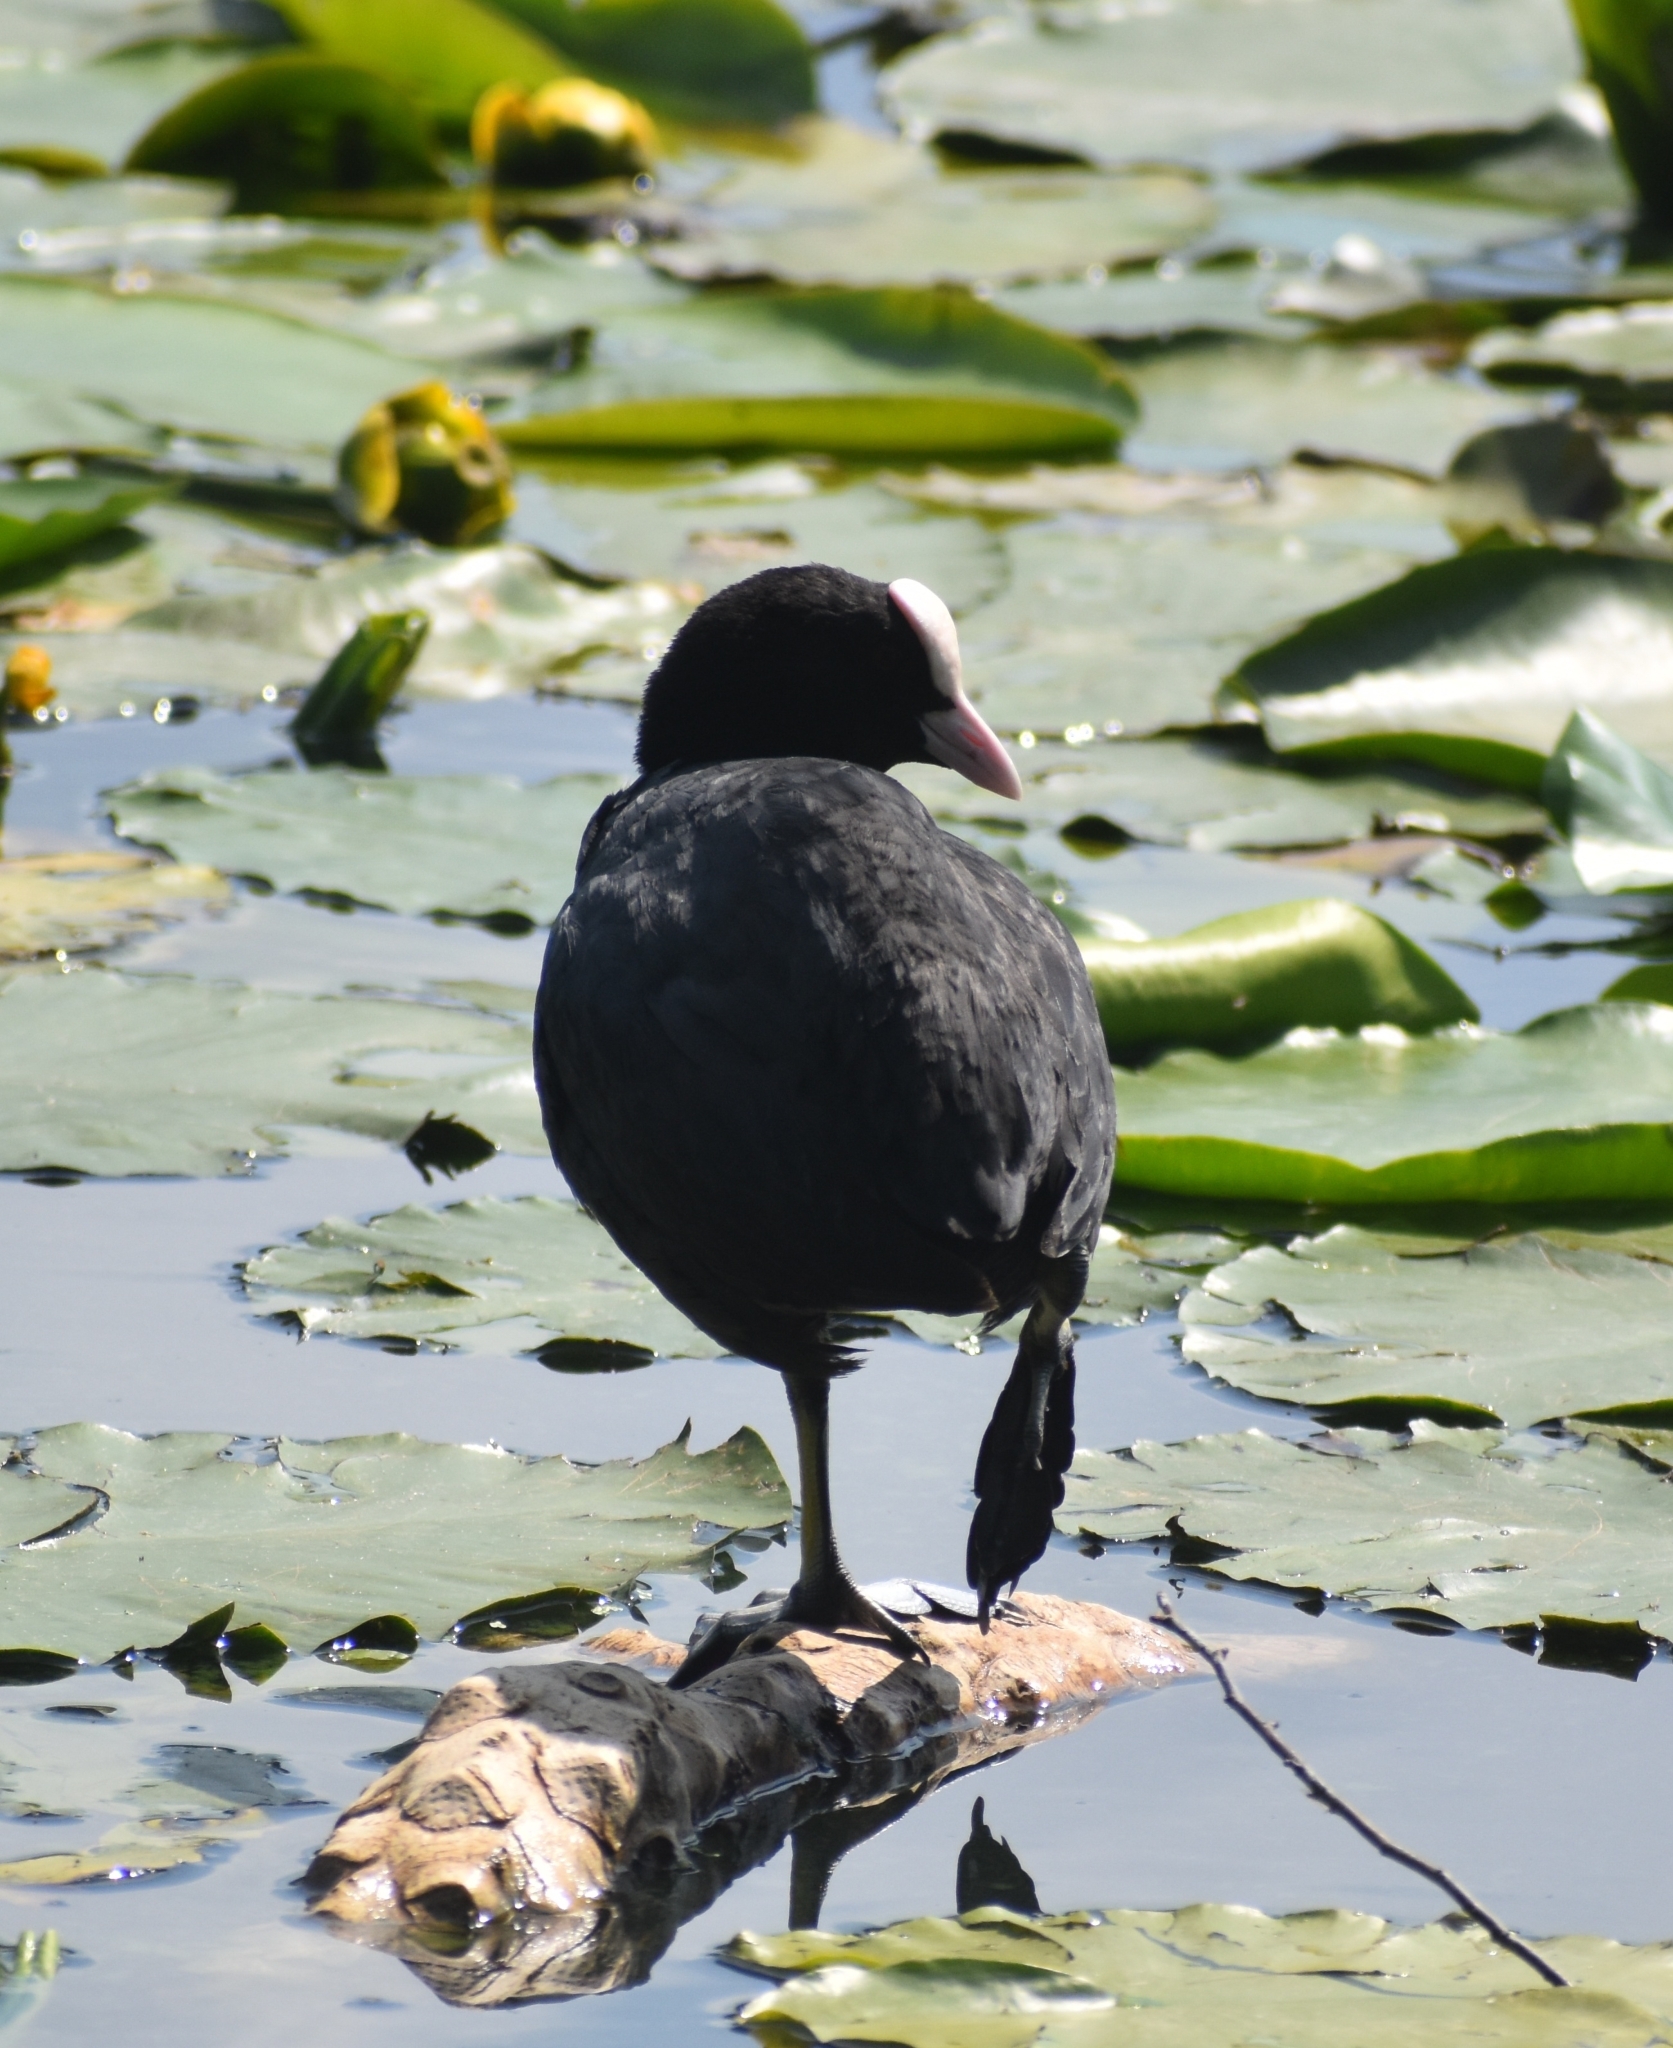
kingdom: Animalia
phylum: Chordata
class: Aves
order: Gruiformes
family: Rallidae
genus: Fulica
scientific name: Fulica atra
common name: Eurasian coot
